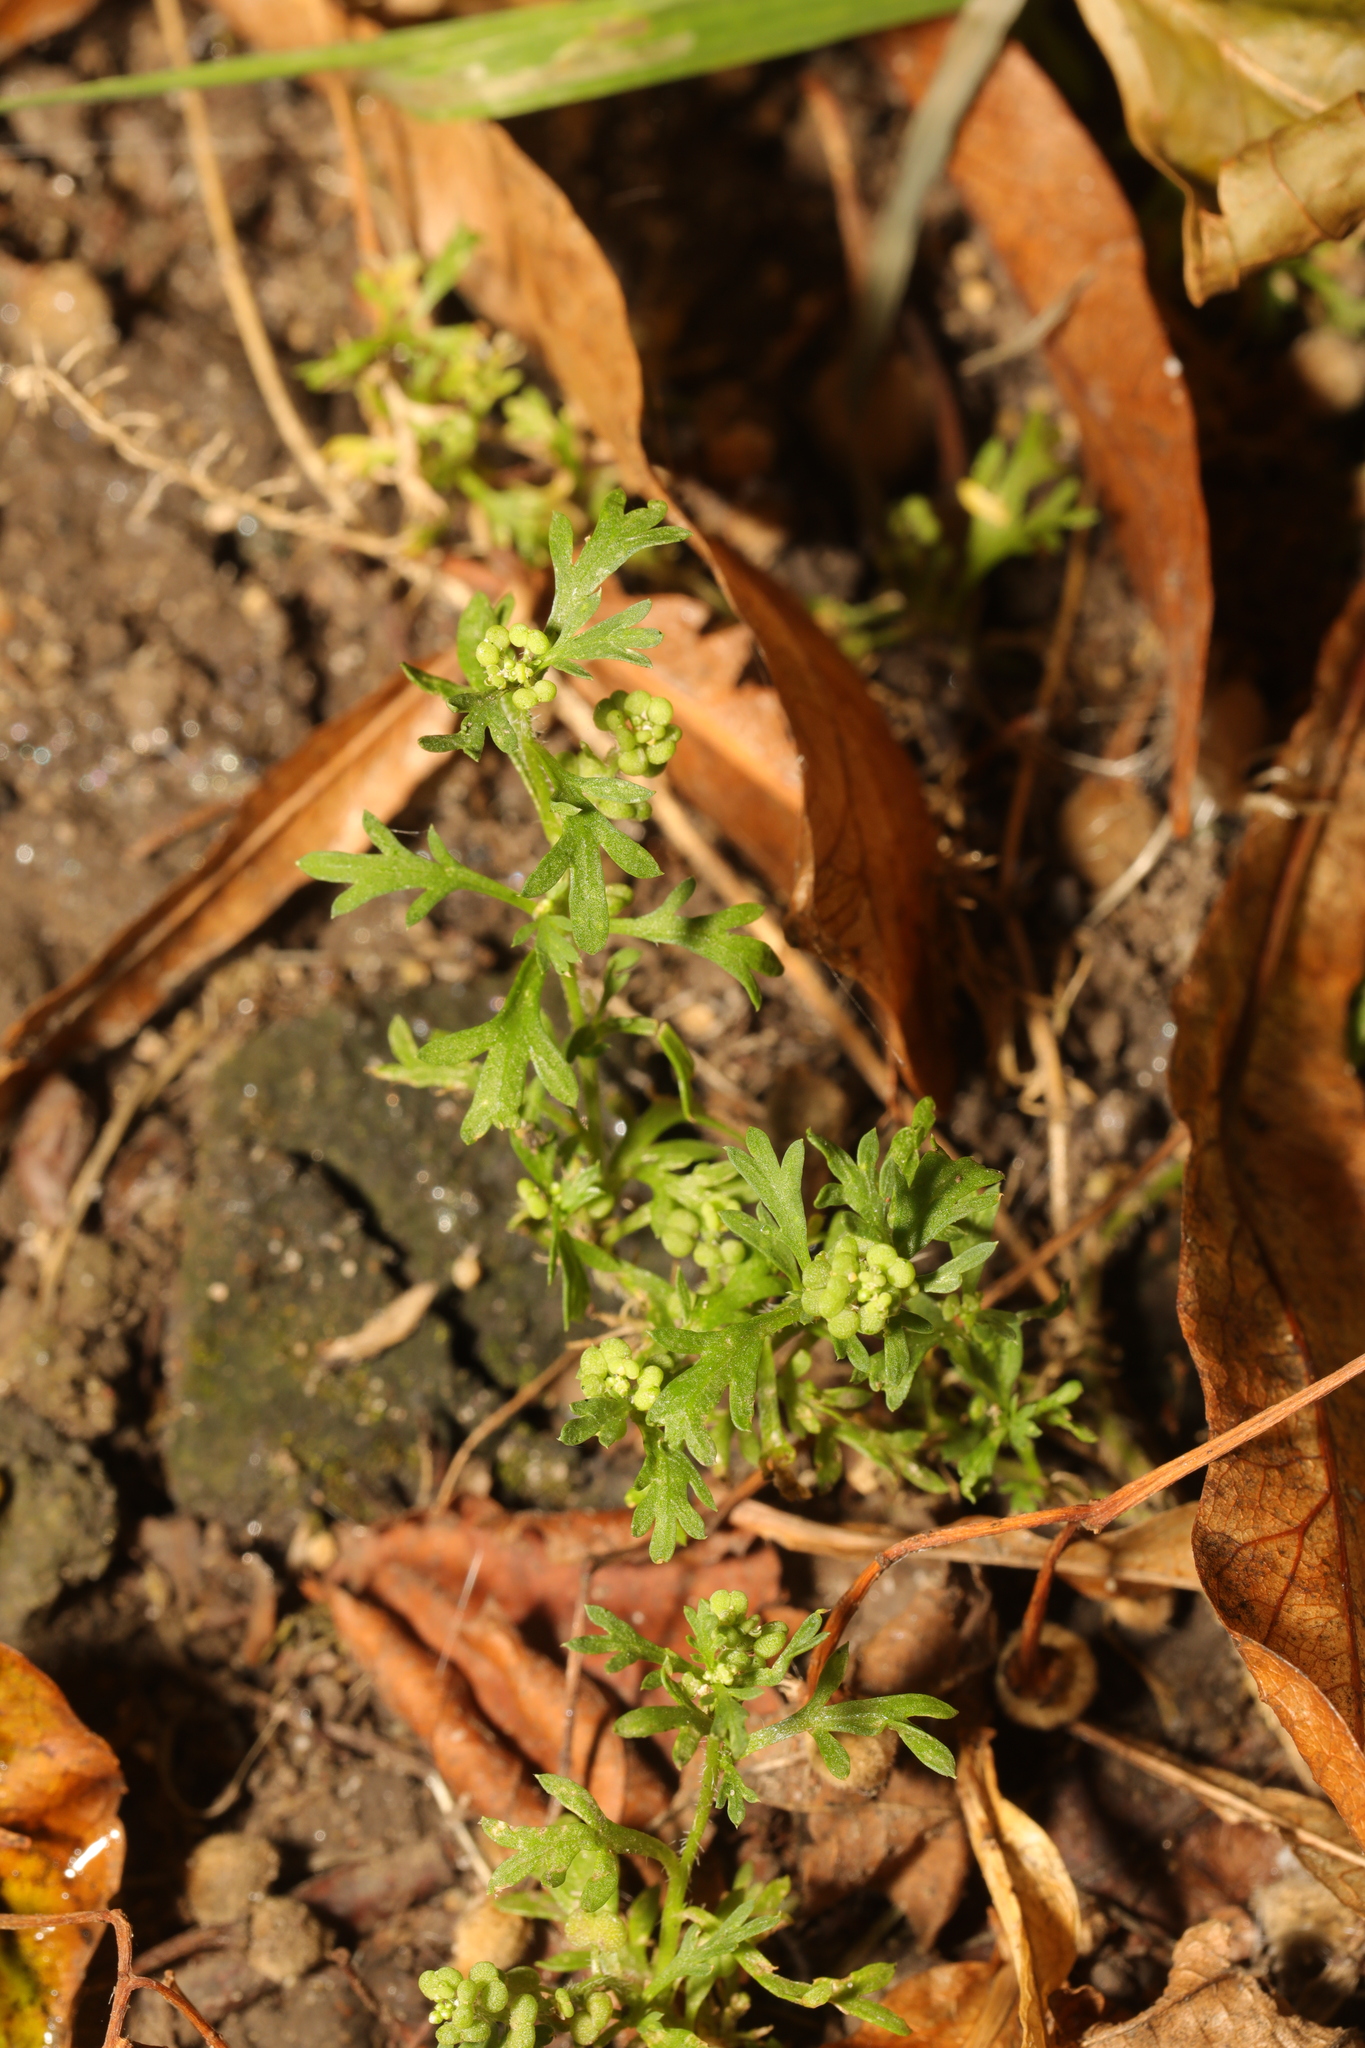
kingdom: Plantae
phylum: Tracheophyta
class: Magnoliopsida
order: Brassicales
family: Brassicaceae
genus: Lepidium
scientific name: Lepidium didymum
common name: Lesser swinecress
